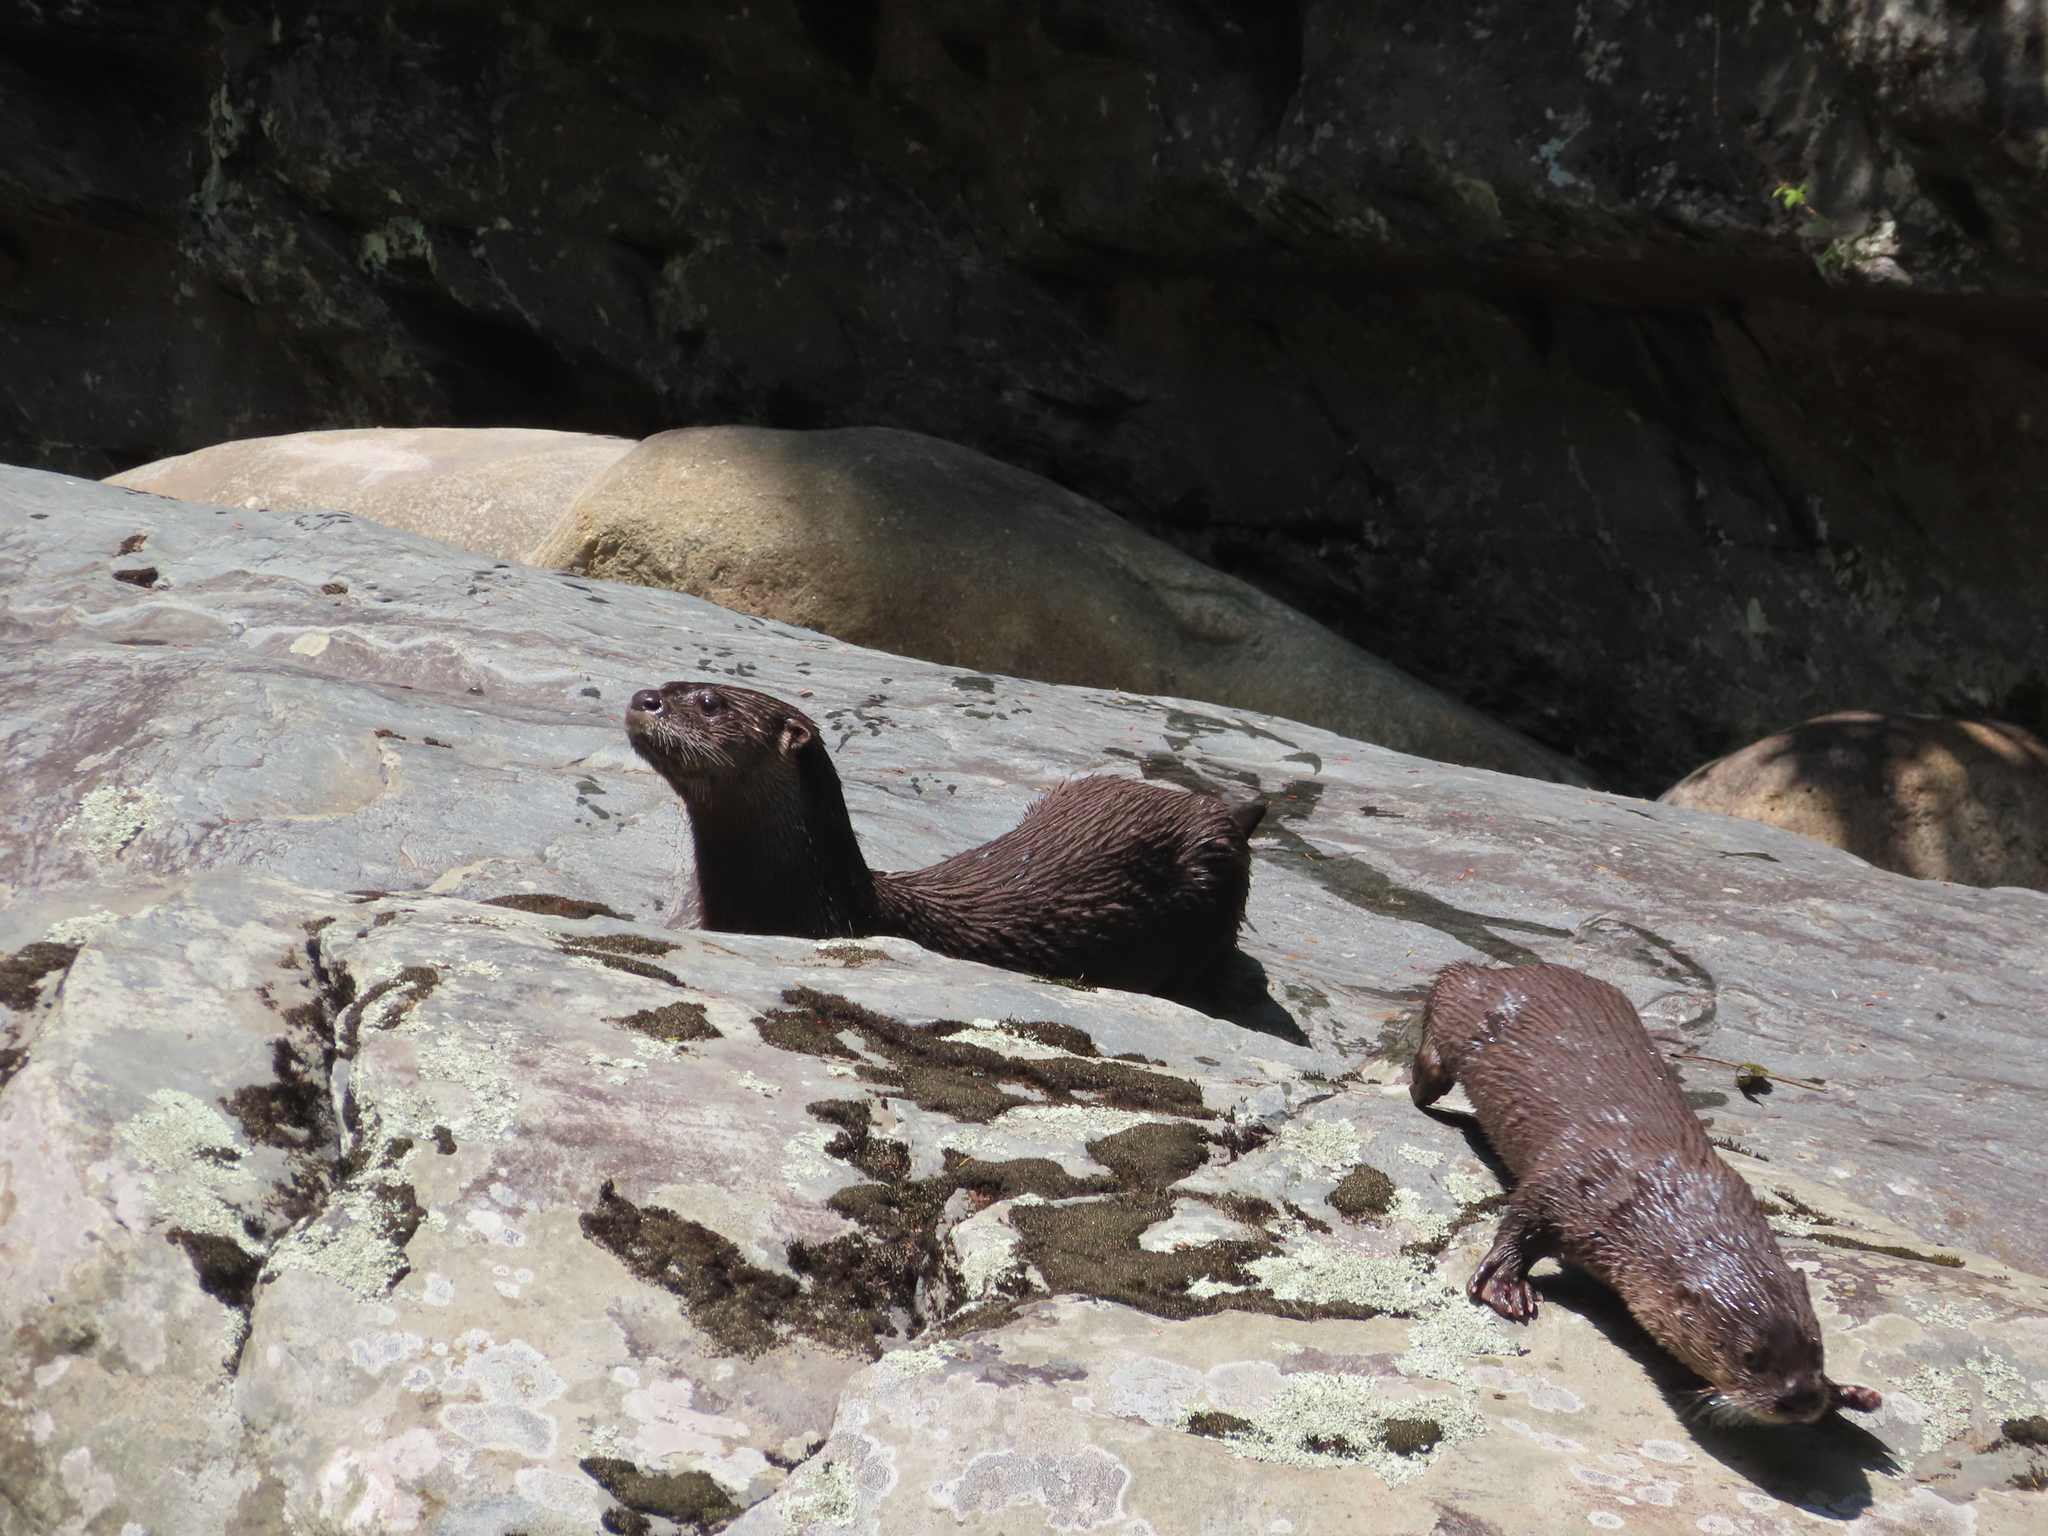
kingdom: Animalia
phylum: Chordata
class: Mammalia
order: Carnivora
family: Mustelidae
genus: Lontra
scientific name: Lontra canadensis
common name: North american river otter
